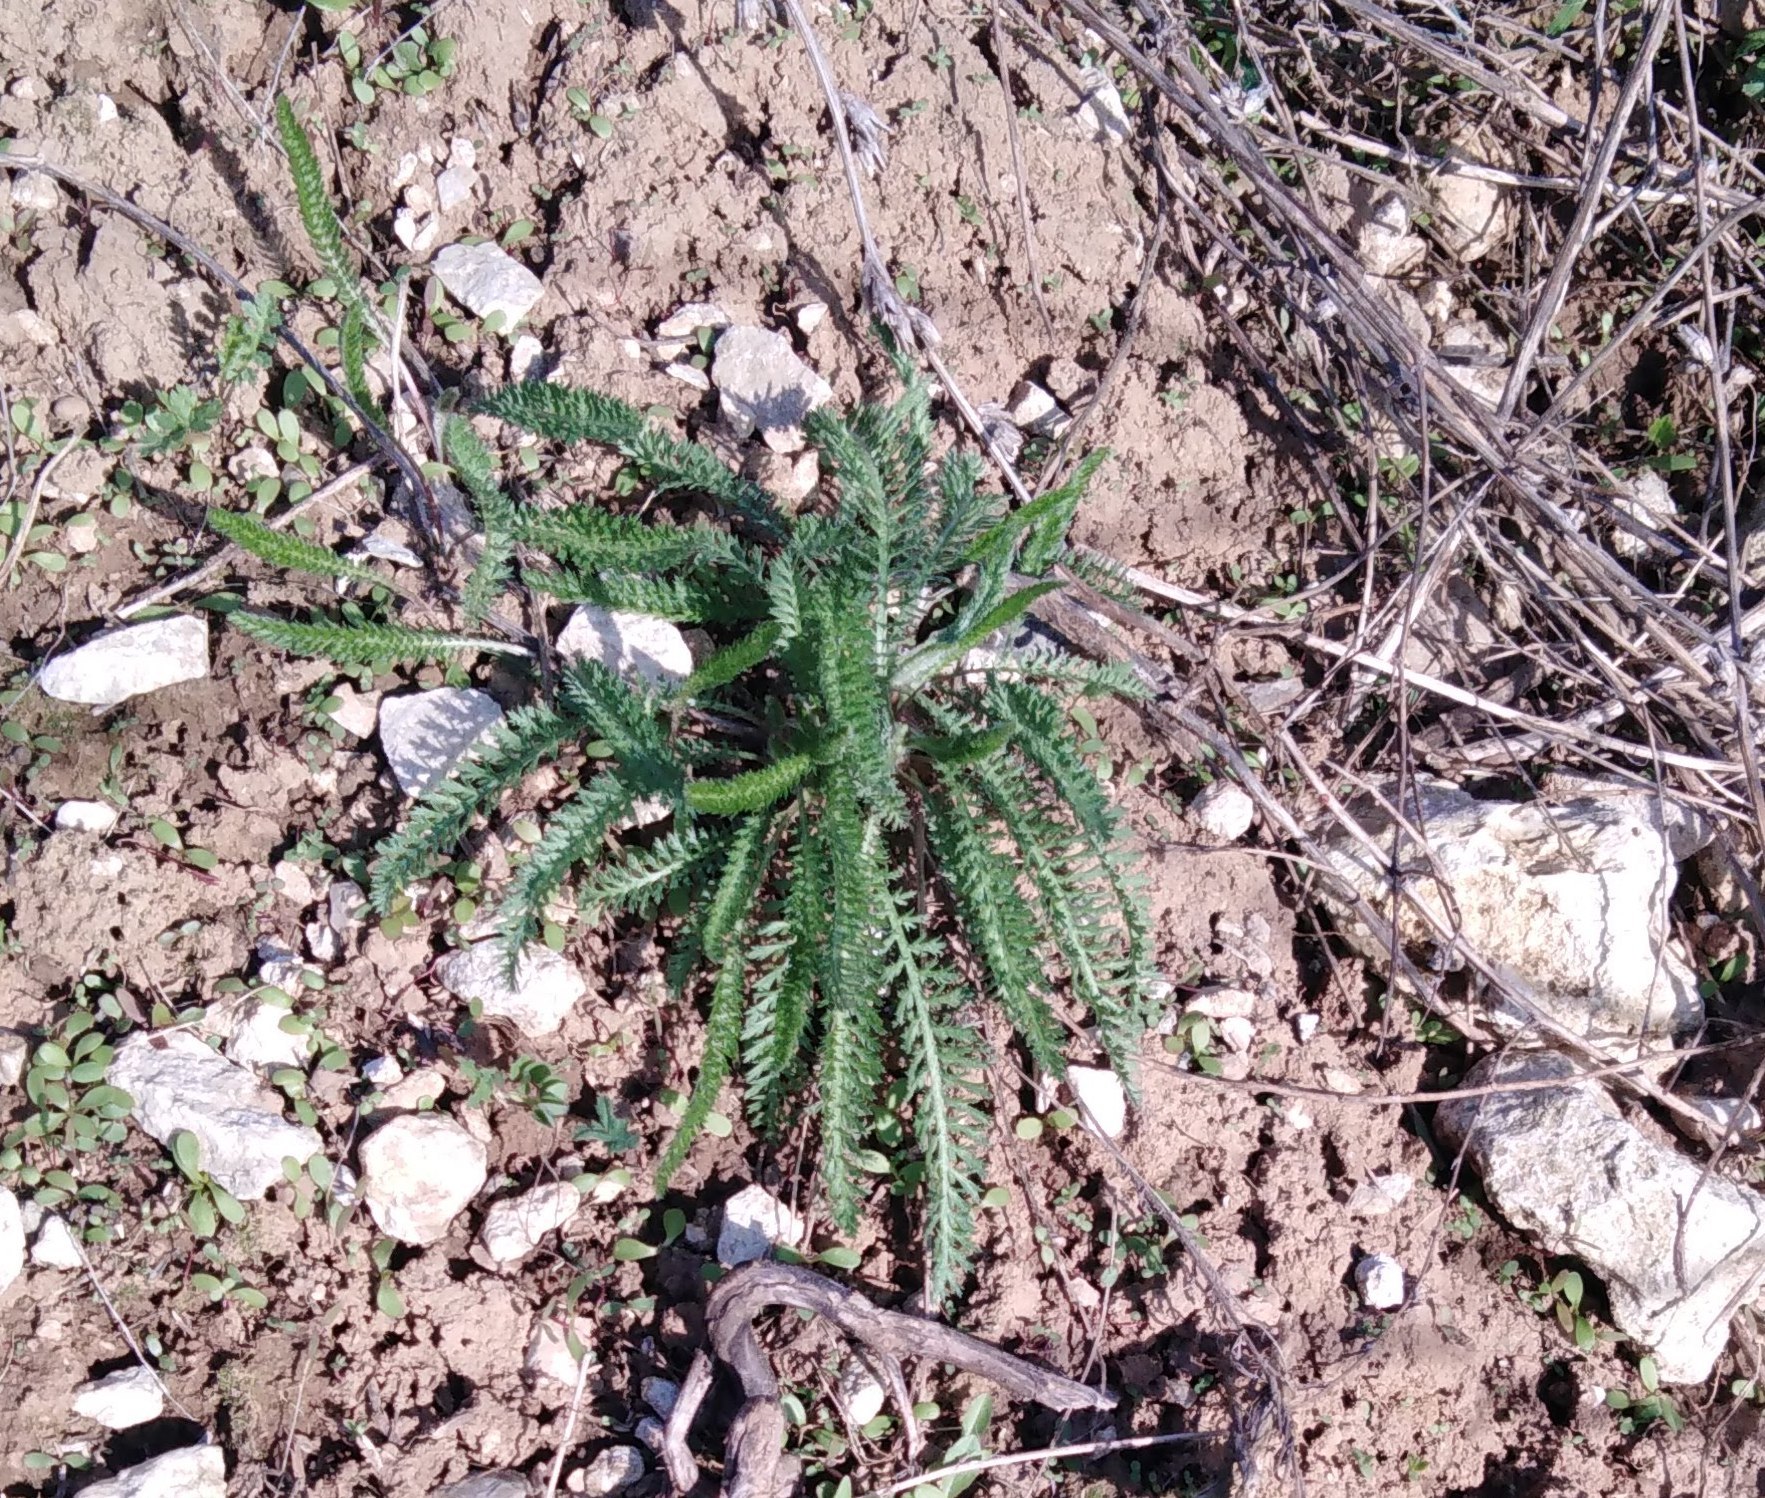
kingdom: Plantae
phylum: Tracheophyta
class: Magnoliopsida
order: Asterales
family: Asteraceae
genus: Achillea
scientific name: Achillea millefolium
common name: Yarrow
